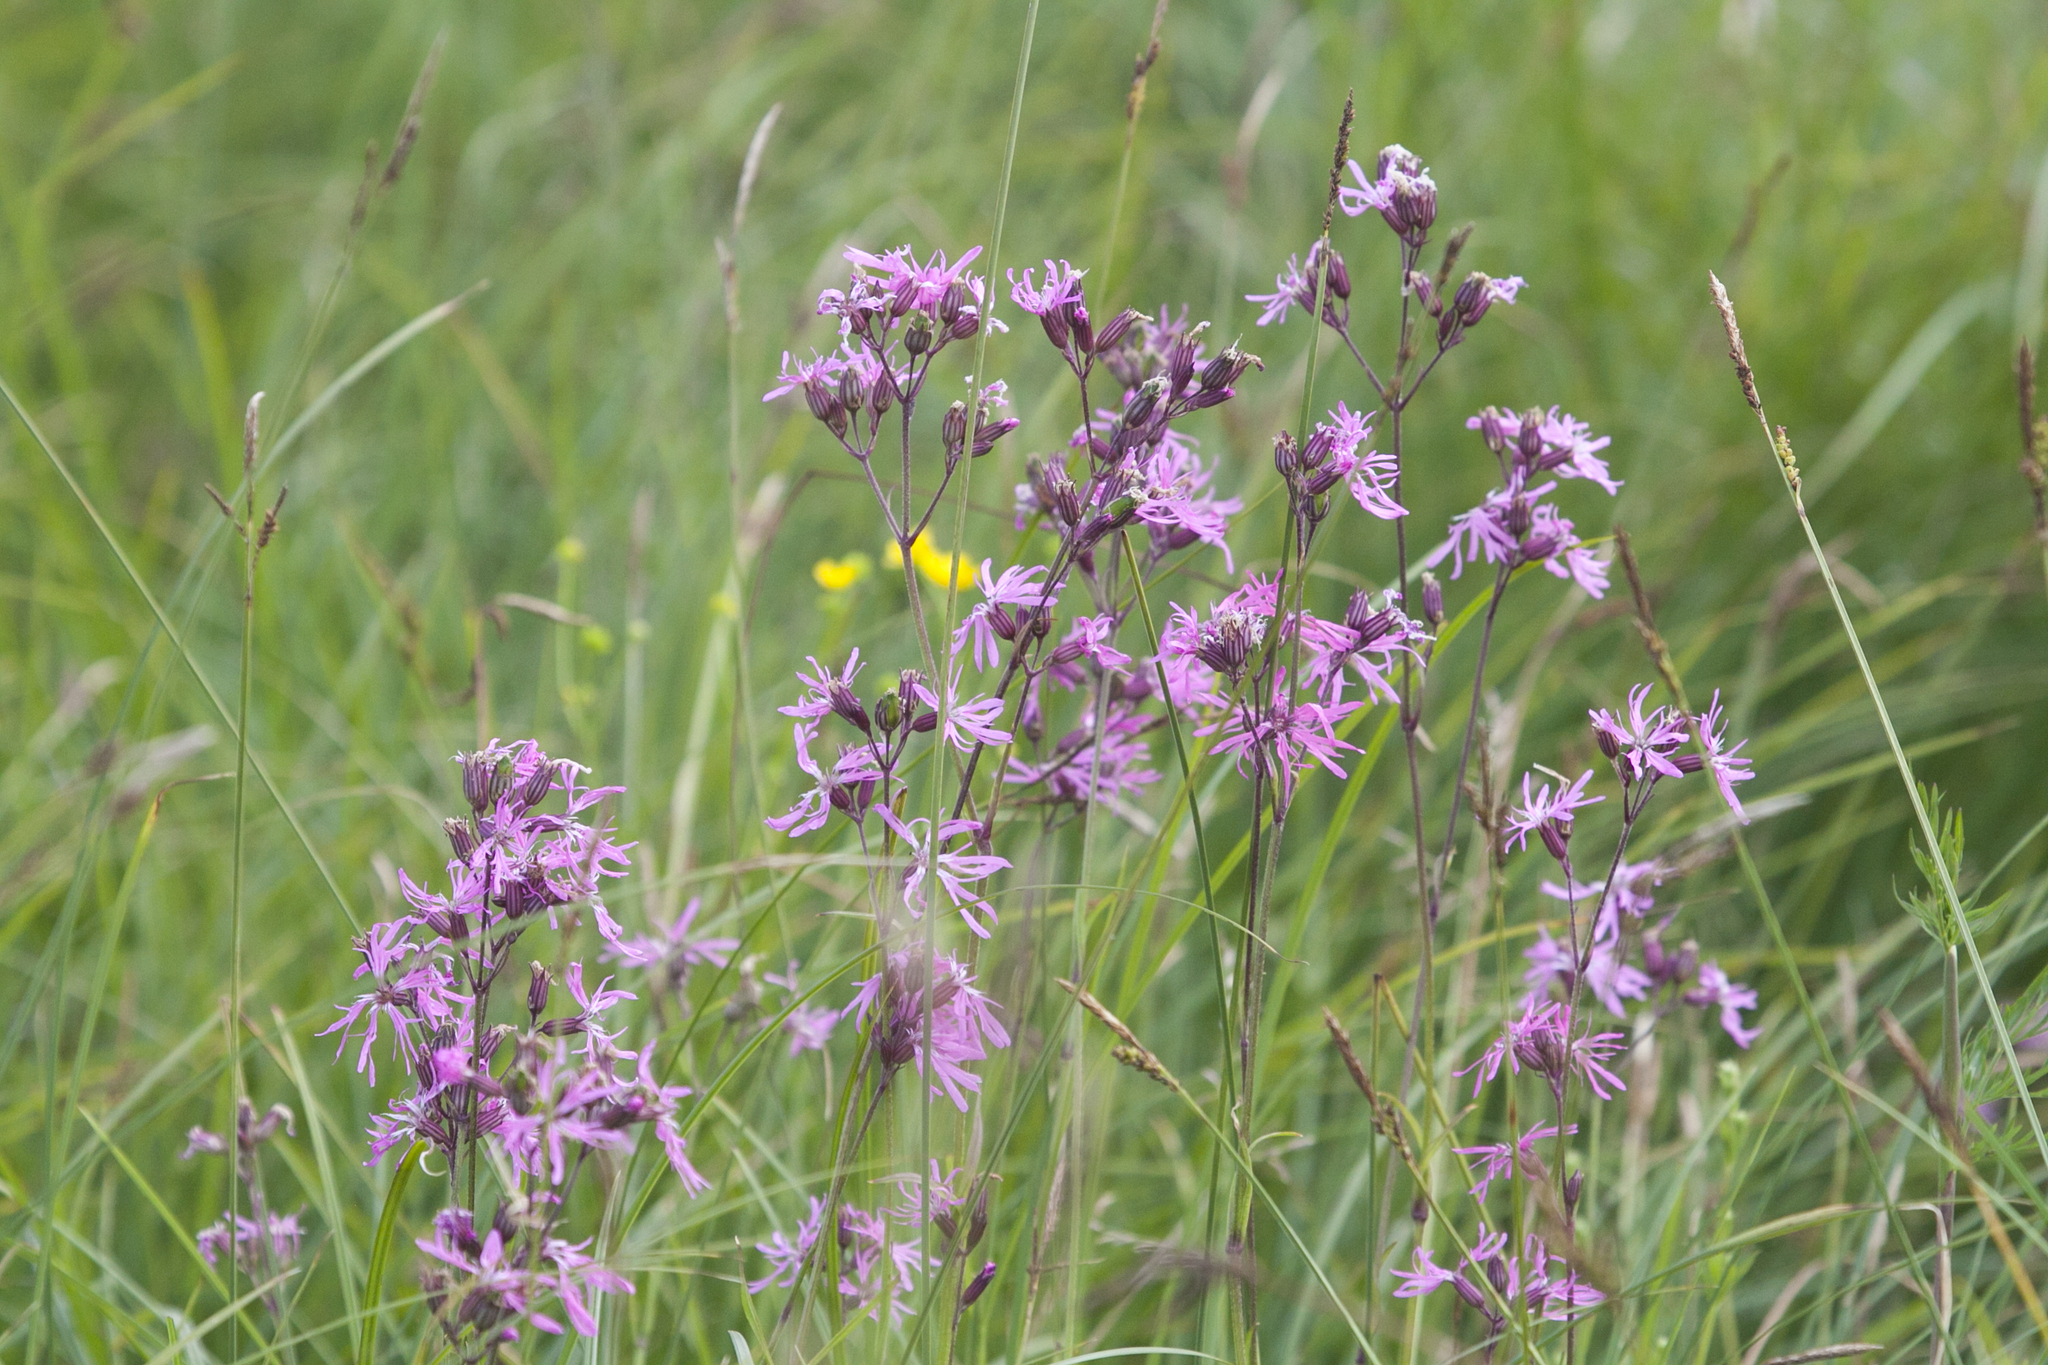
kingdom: Plantae
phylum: Tracheophyta
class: Magnoliopsida
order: Caryophyllales
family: Caryophyllaceae
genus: Silene
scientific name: Silene flos-cuculi
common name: Ragged-robin
